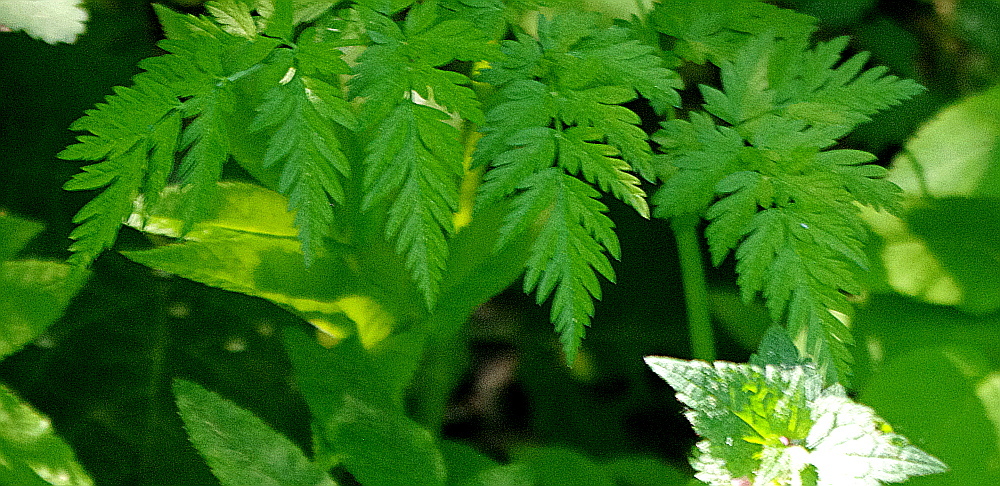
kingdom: Plantae
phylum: Tracheophyta
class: Magnoliopsida
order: Apiales
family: Apiaceae
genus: Anthriscus
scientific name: Anthriscus sylvestris
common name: Cow parsley
